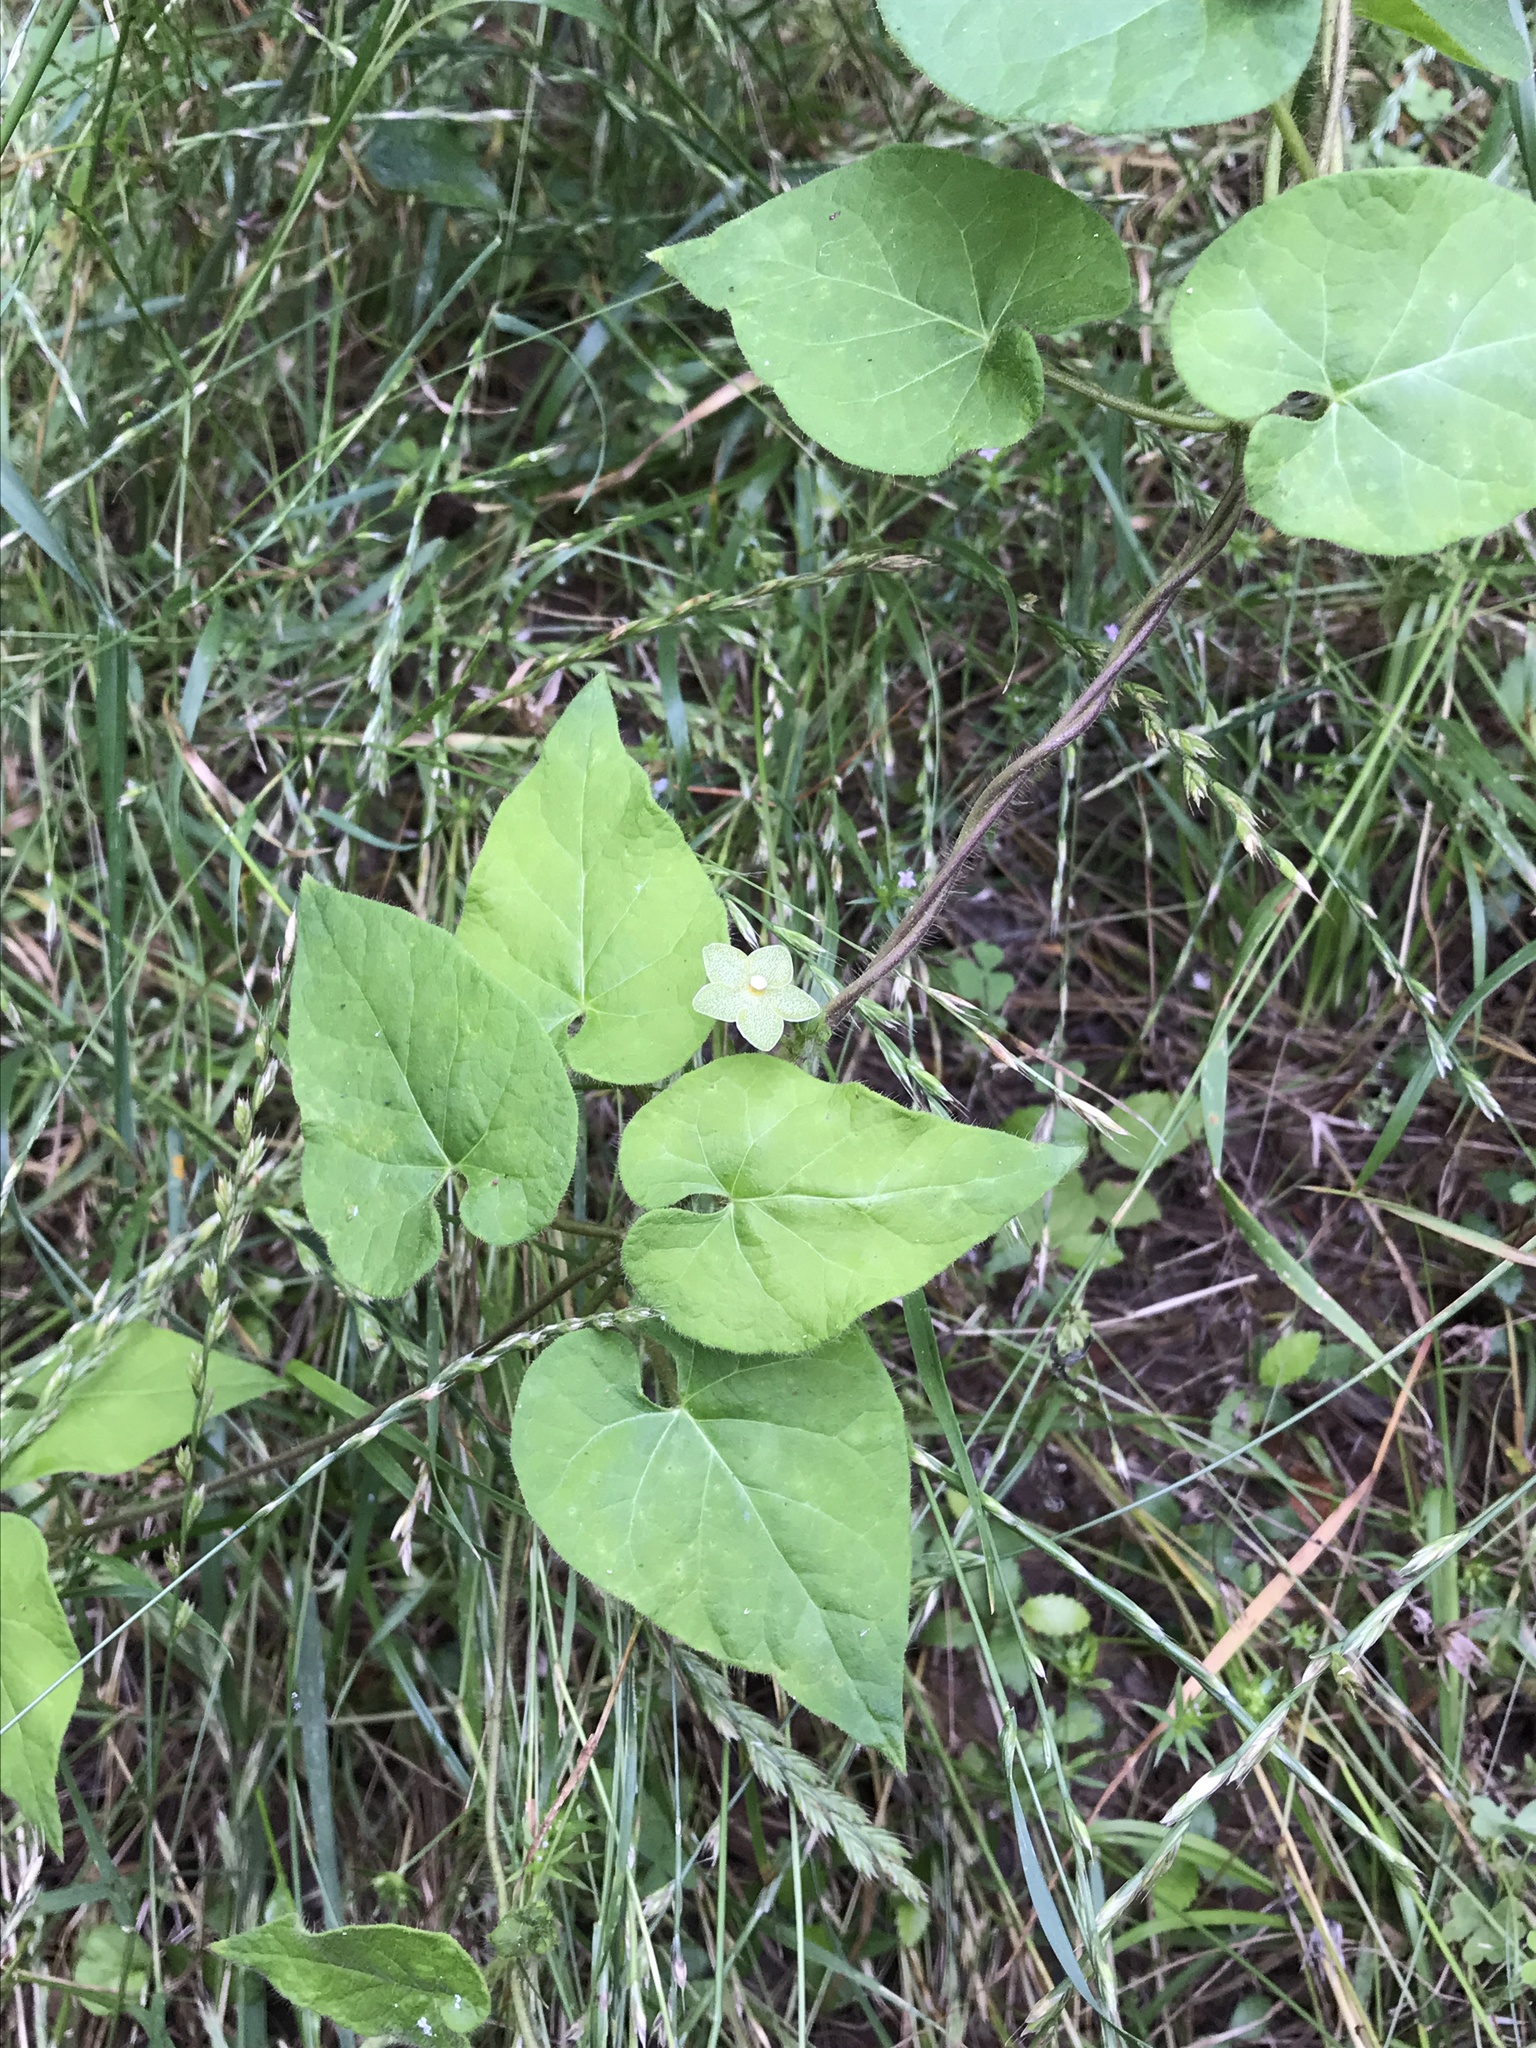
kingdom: Plantae
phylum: Tracheophyta
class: Magnoliopsida
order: Gentianales
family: Apocynaceae
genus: Dictyanthus
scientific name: Dictyanthus reticulatus
